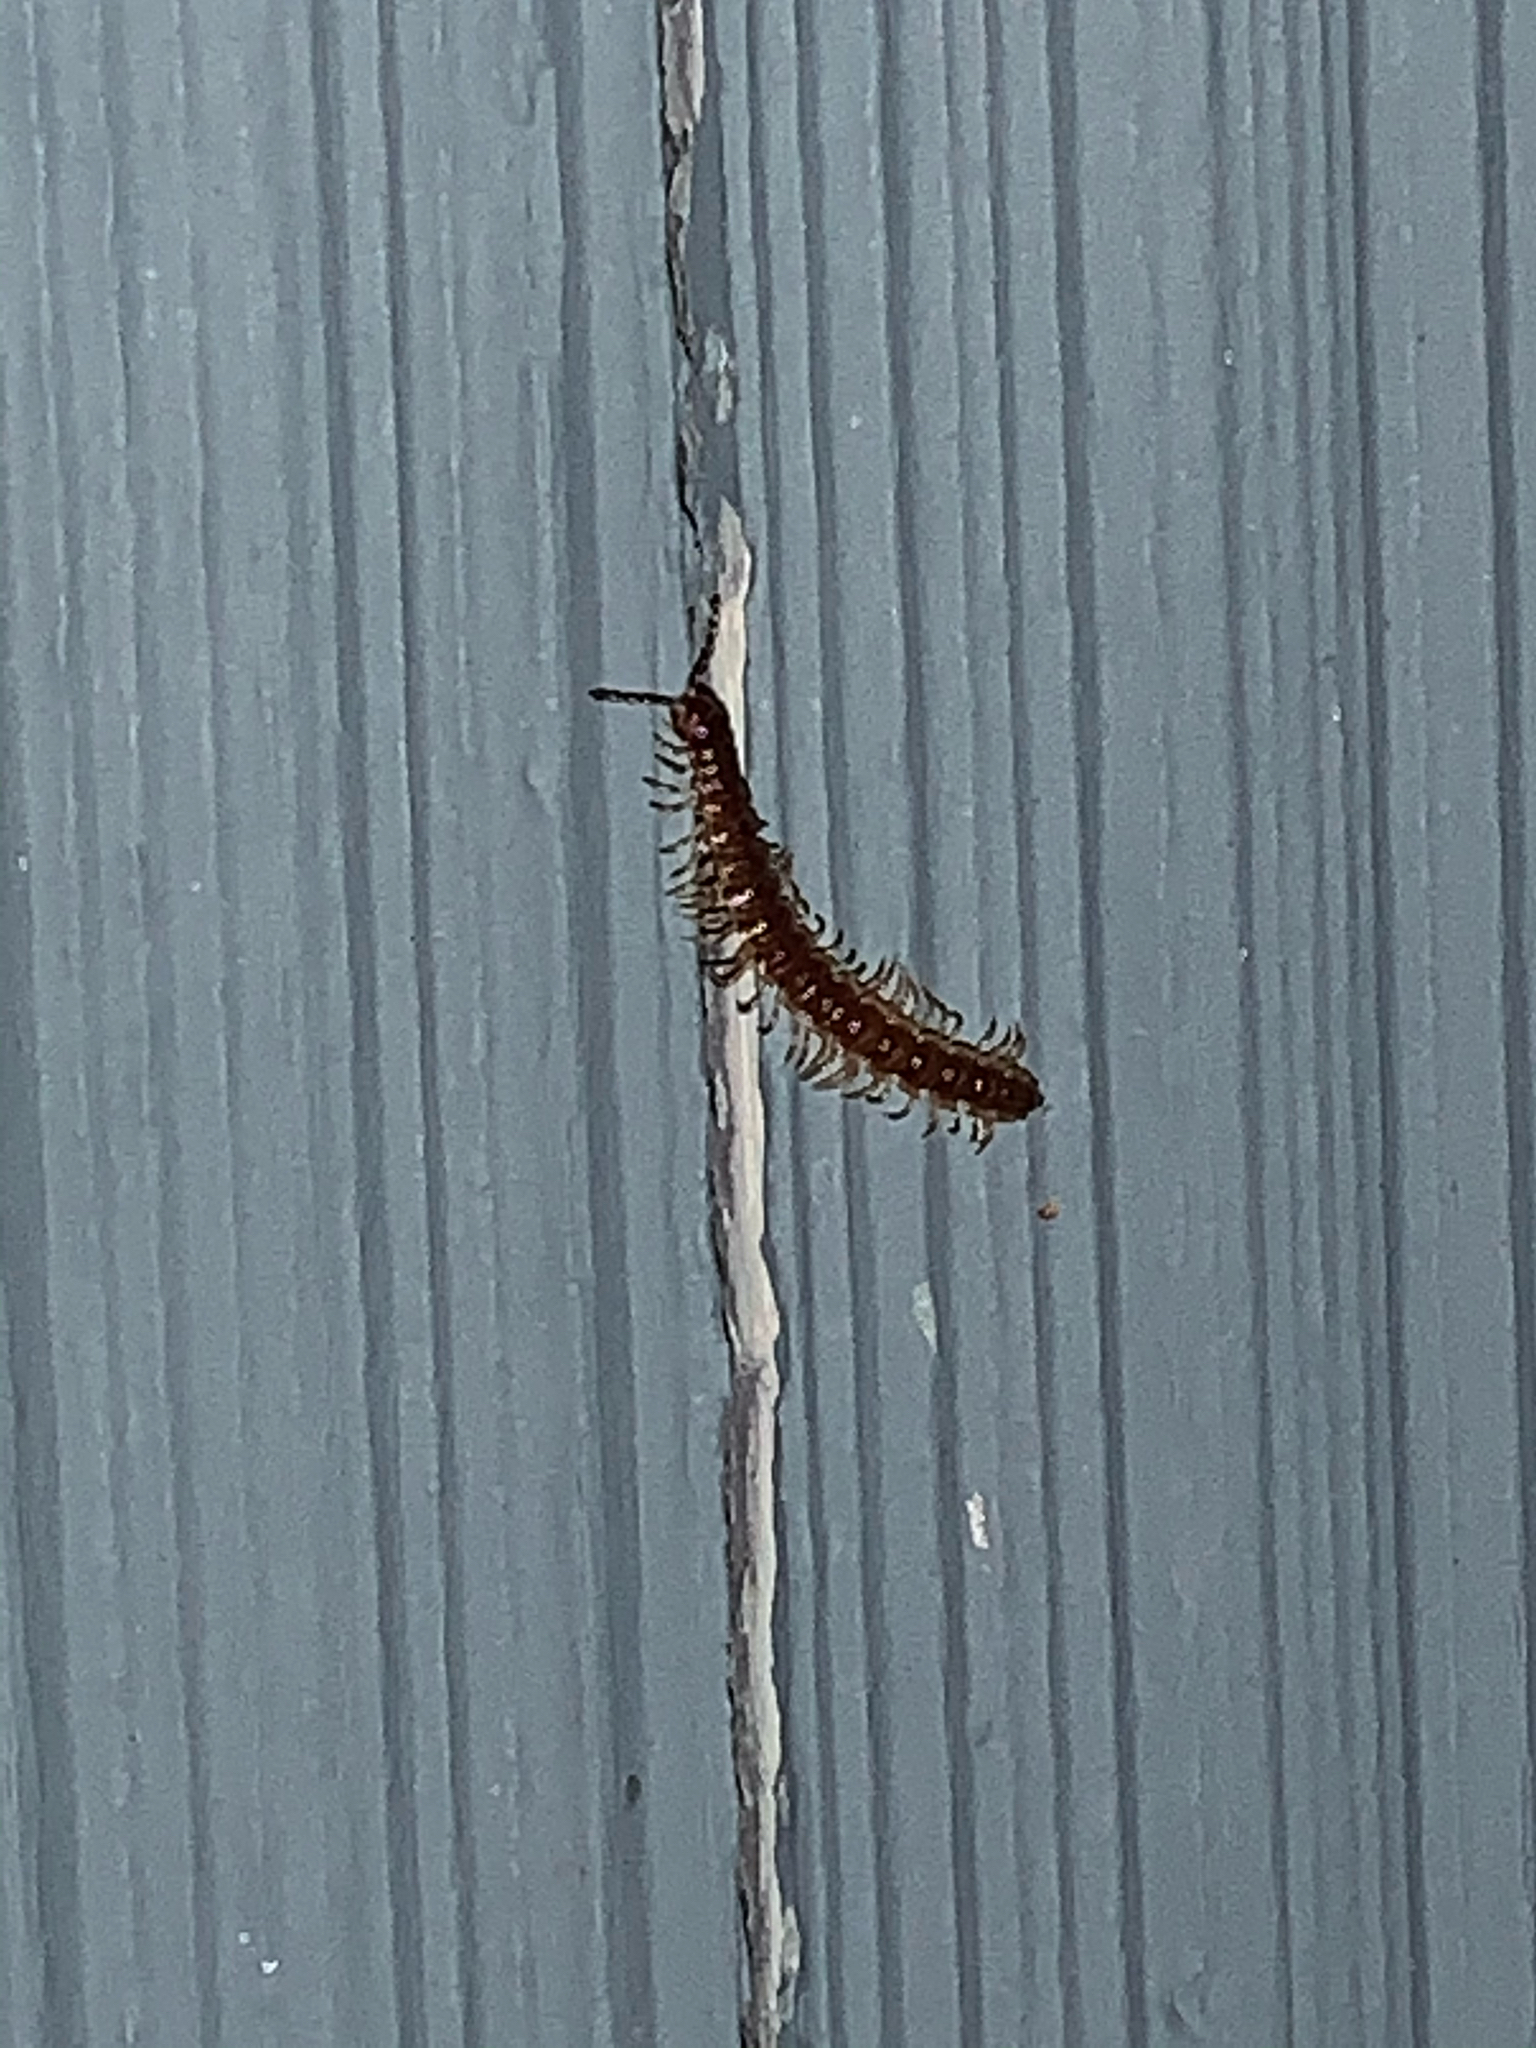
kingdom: Animalia
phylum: Arthropoda
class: Diplopoda
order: Polydesmida
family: Paradoxosomatidae
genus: Oxidus
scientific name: Oxidus gracilis
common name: Greenhouse millipede
